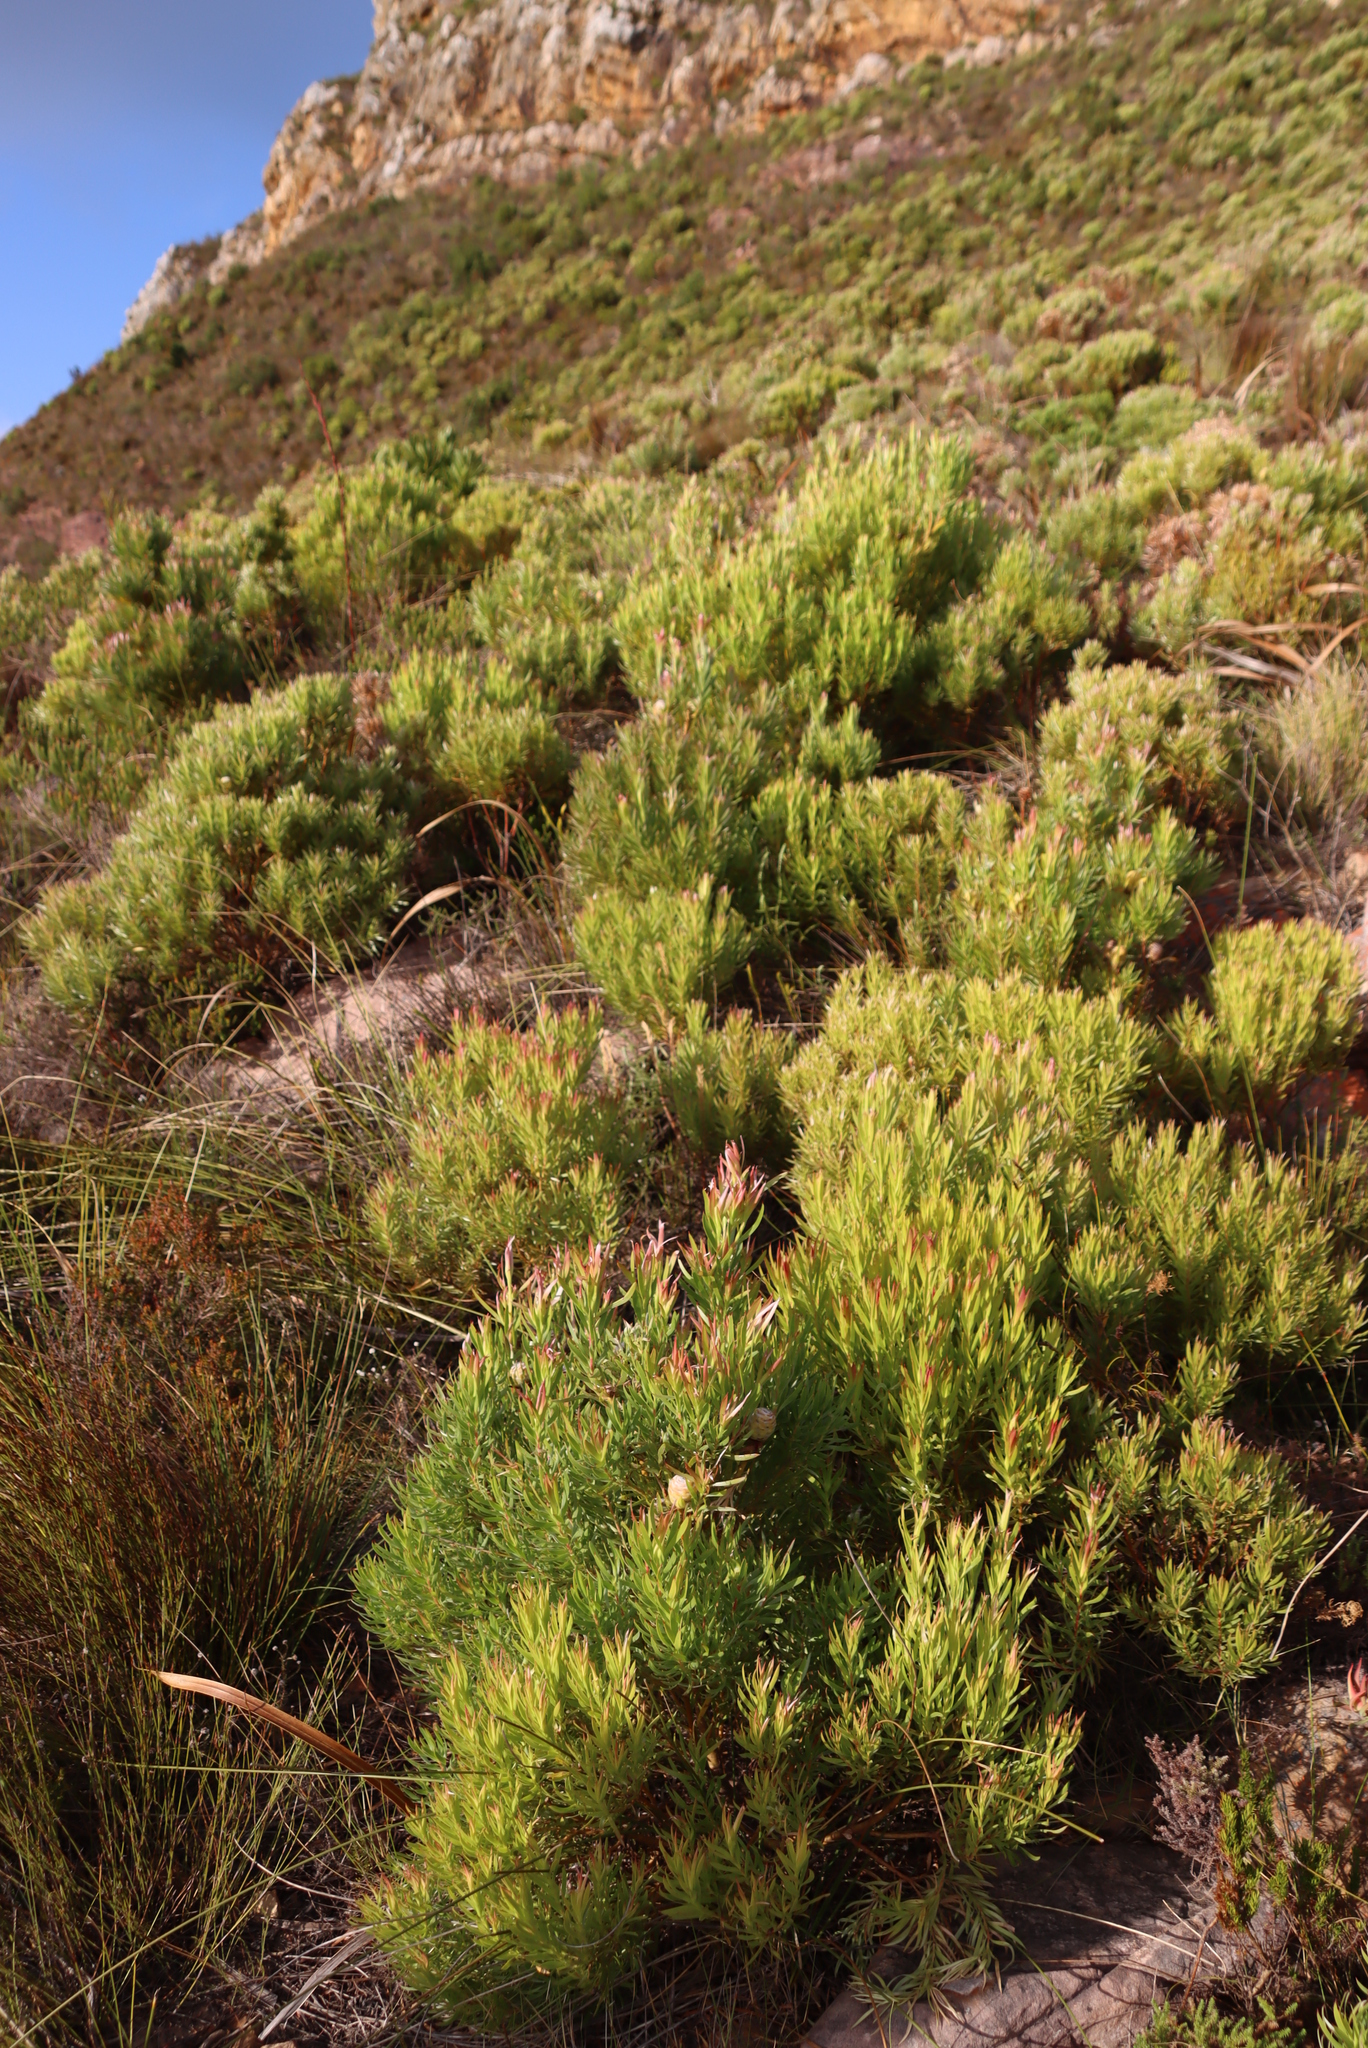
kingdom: Plantae
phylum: Tracheophyta
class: Magnoliopsida
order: Proteales
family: Proteaceae
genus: Leucadendron
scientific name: Leucadendron xanthoconus
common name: Sickle-leaf conebush
